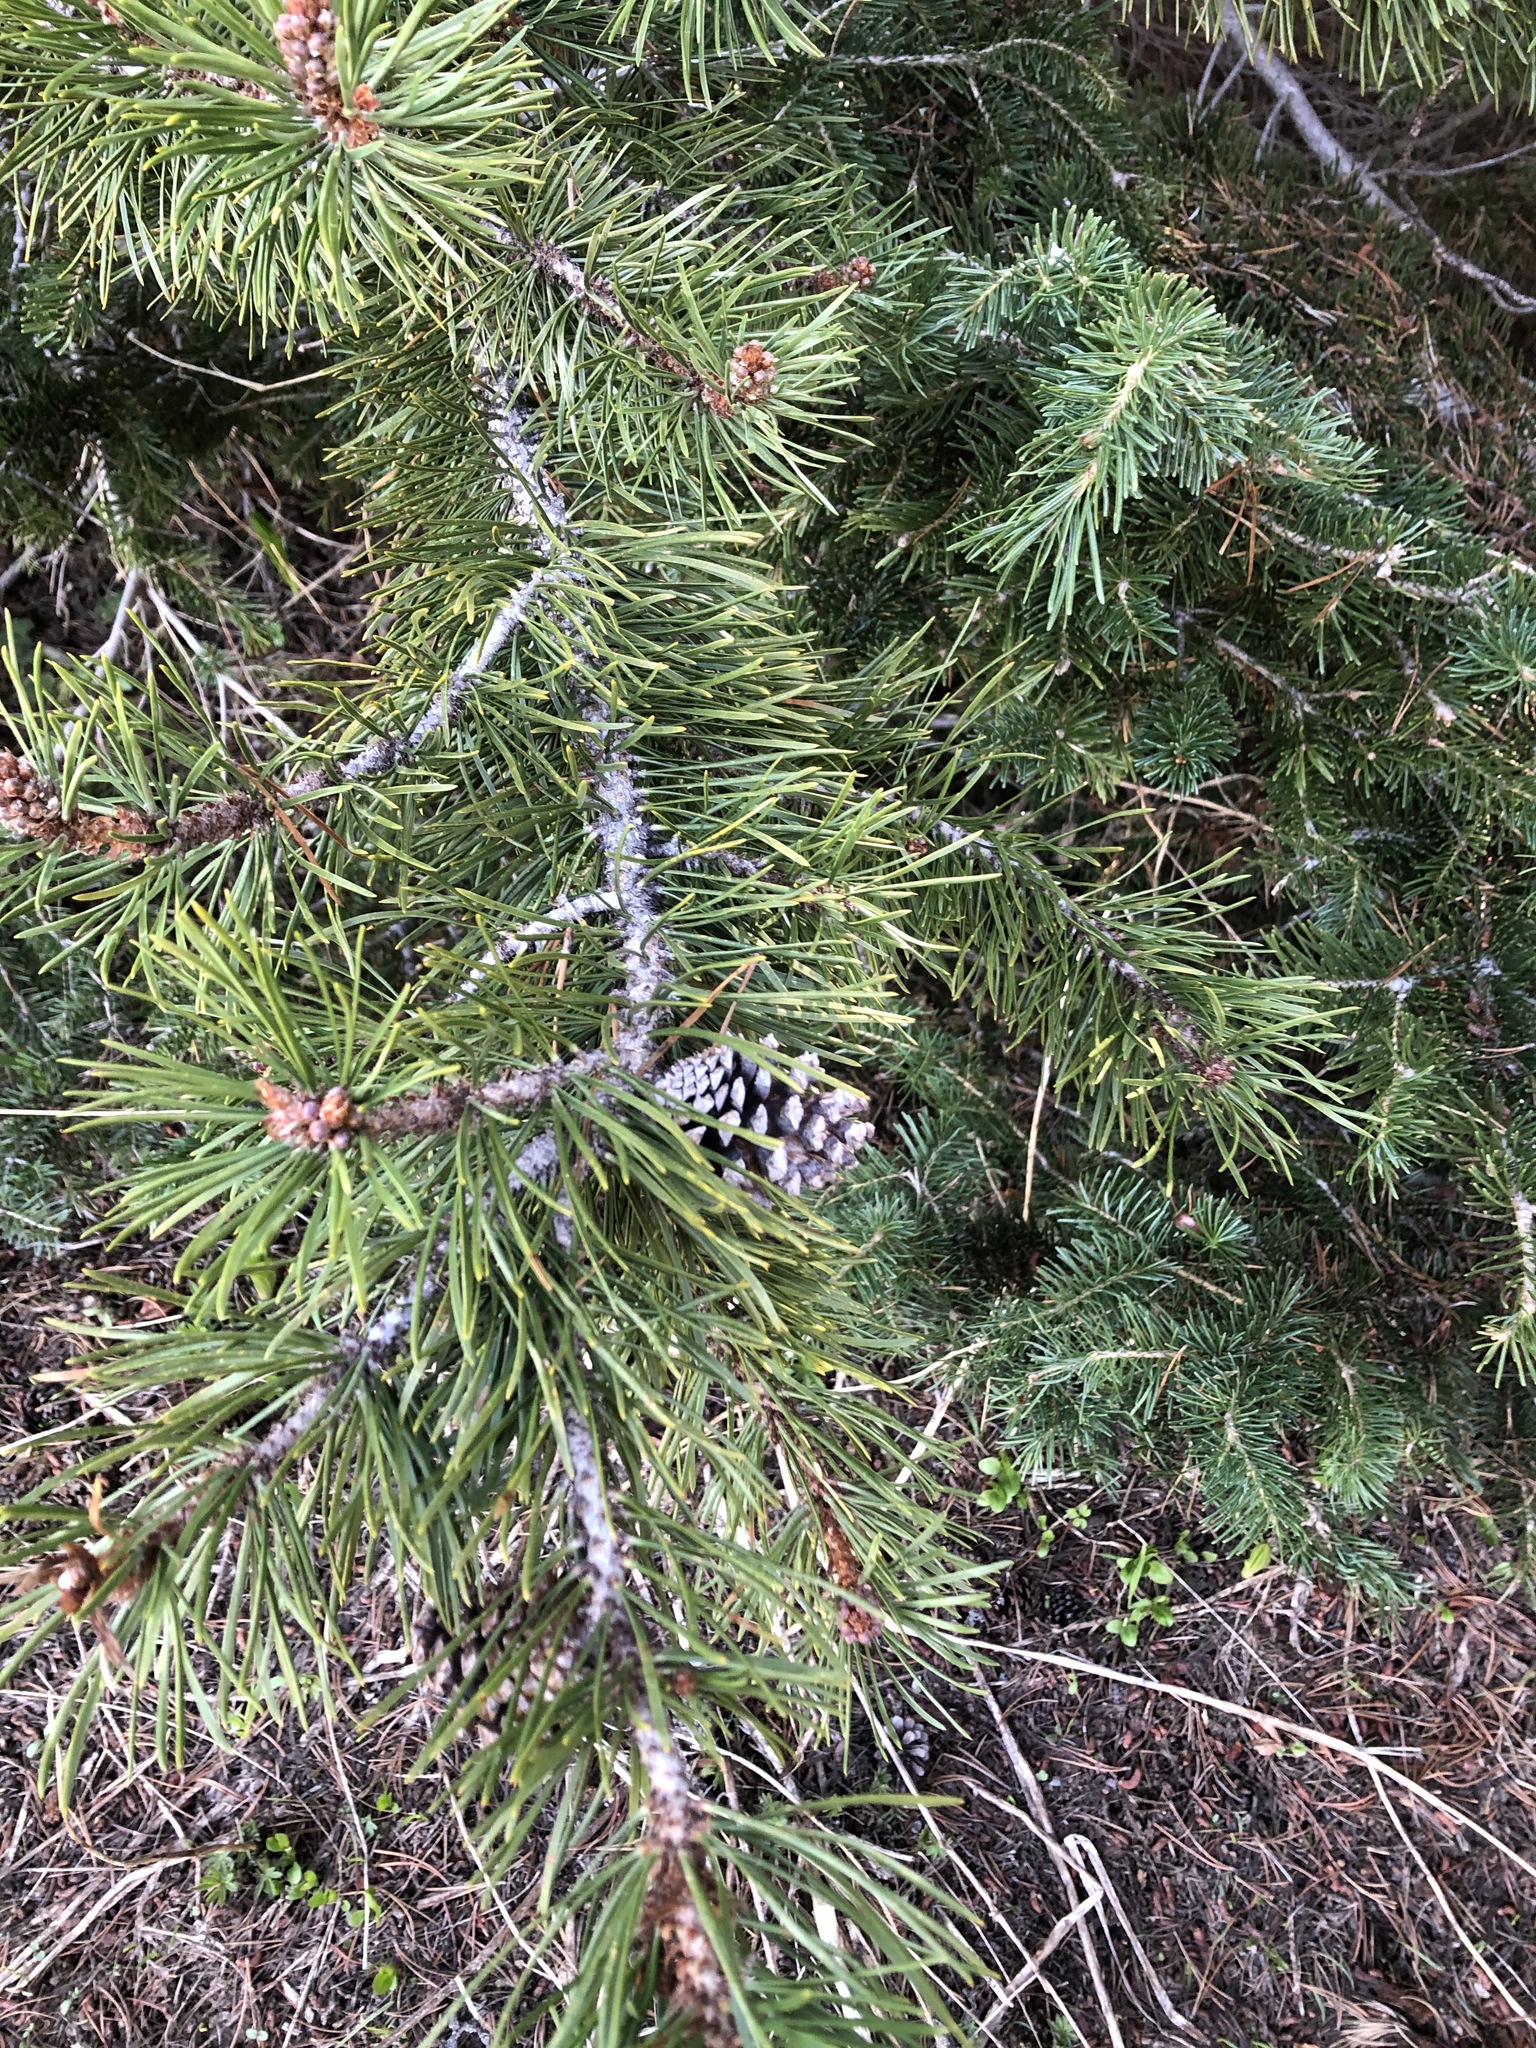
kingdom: Plantae
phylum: Tracheophyta
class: Pinopsida
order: Pinales
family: Pinaceae
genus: Pinus
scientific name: Pinus contorta
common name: Lodgepole pine
